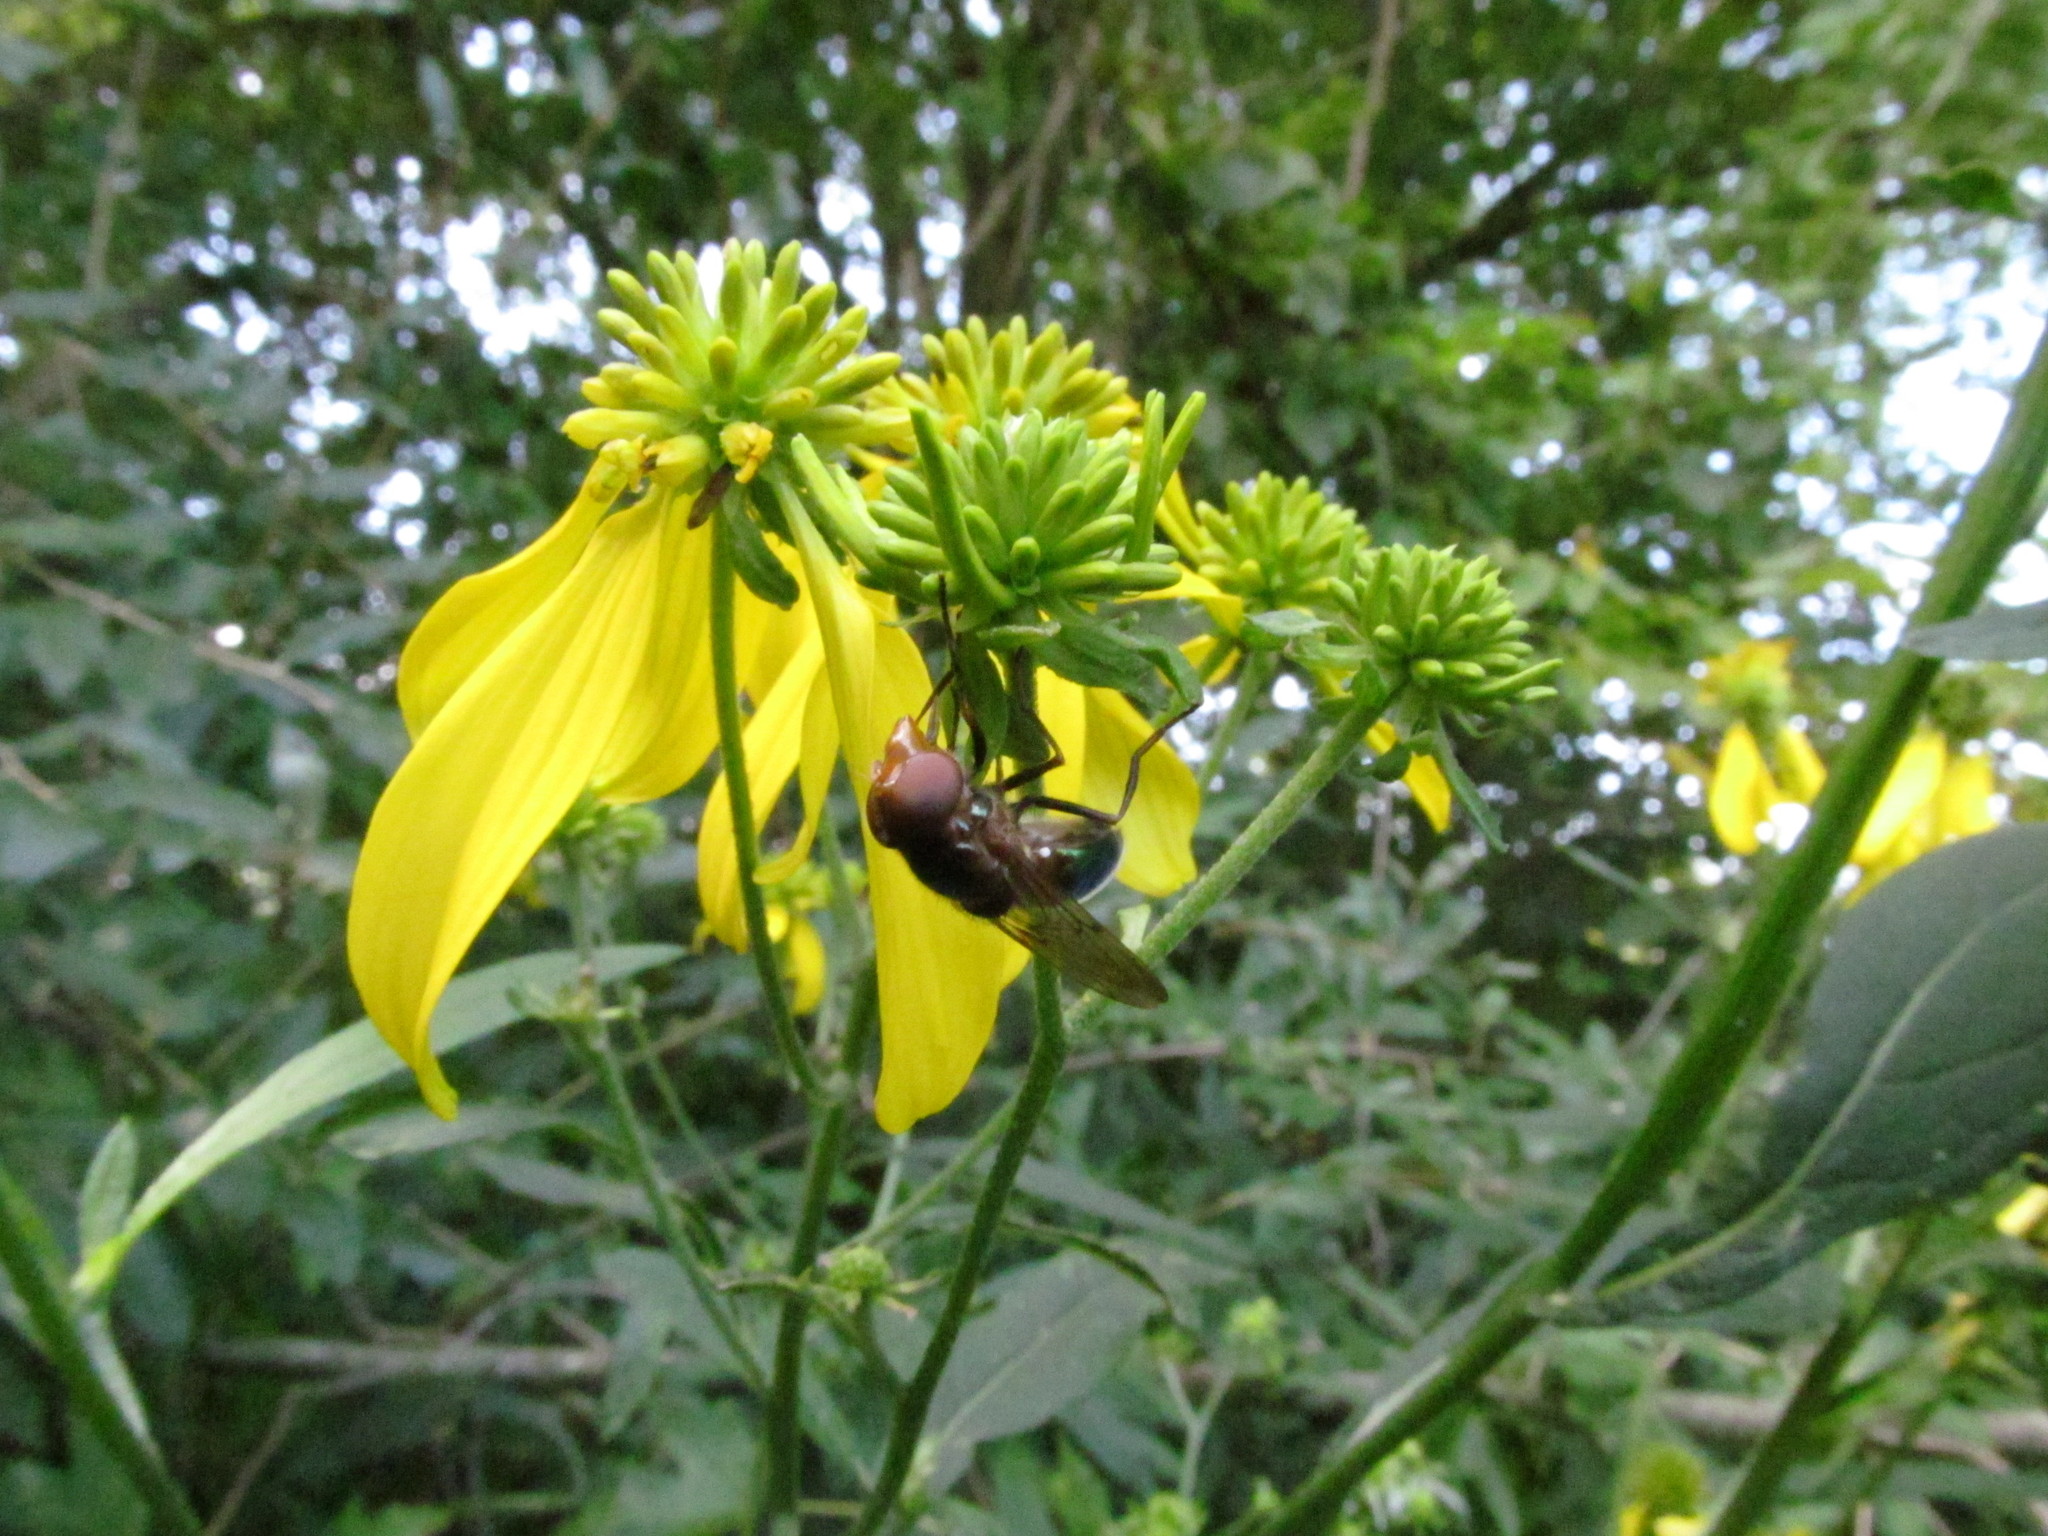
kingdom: Animalia
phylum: Arthropoda
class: Insecta
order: Diptera
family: Syrphidae
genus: Copestylum
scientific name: Copestylum vesicularium
